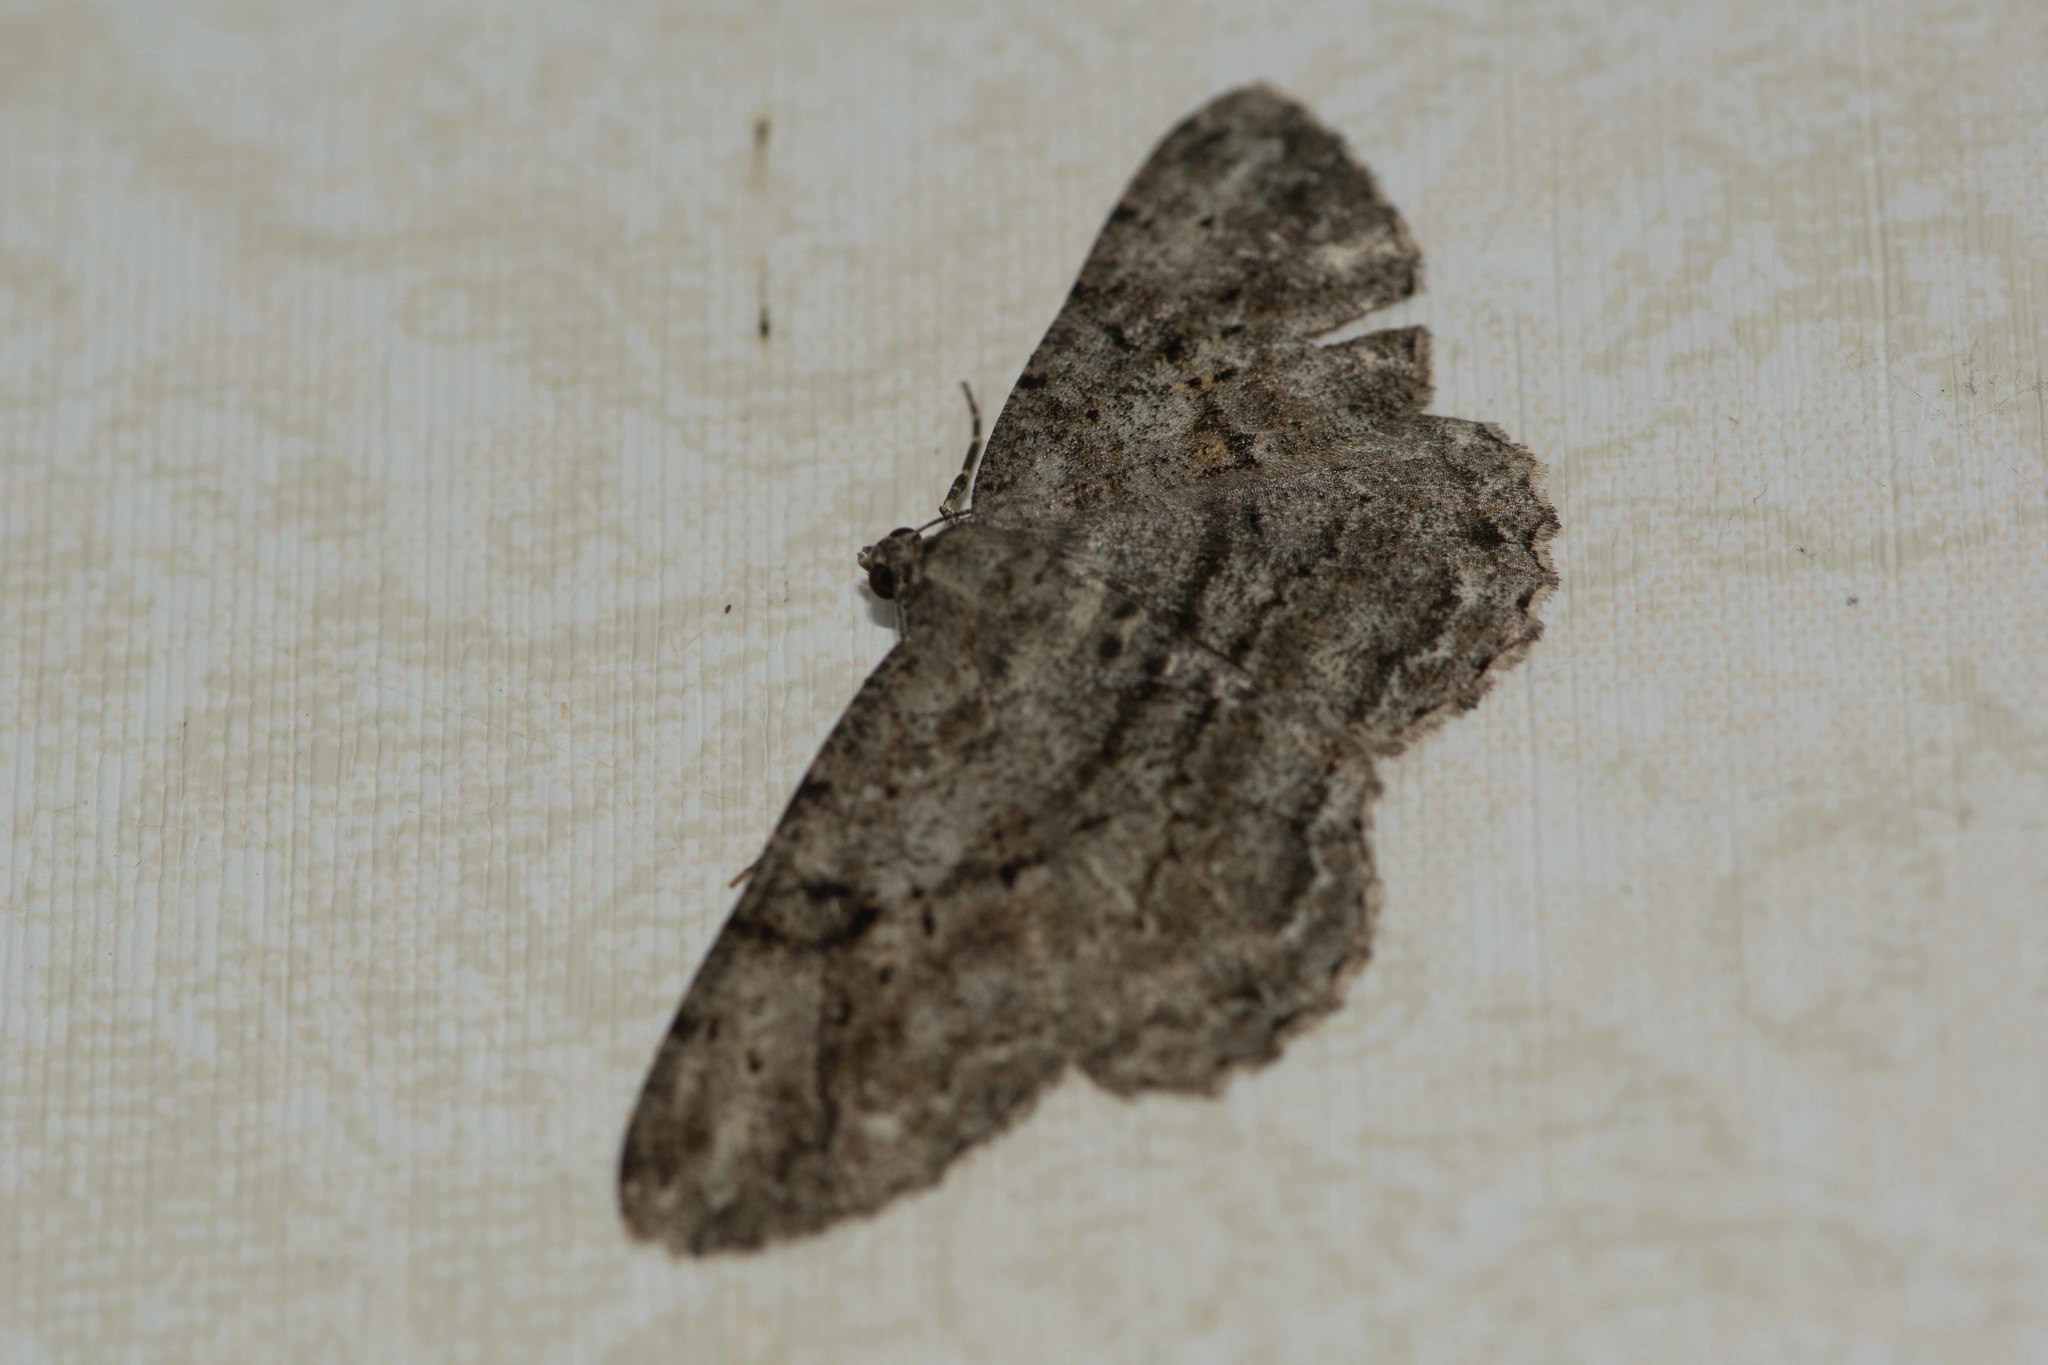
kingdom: Animalia
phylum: Arthropoda
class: Insecta
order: Lepidoptera
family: Geometridae
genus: Peribatodes
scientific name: Peribatodes rhomboidaria
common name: Willow beauty
